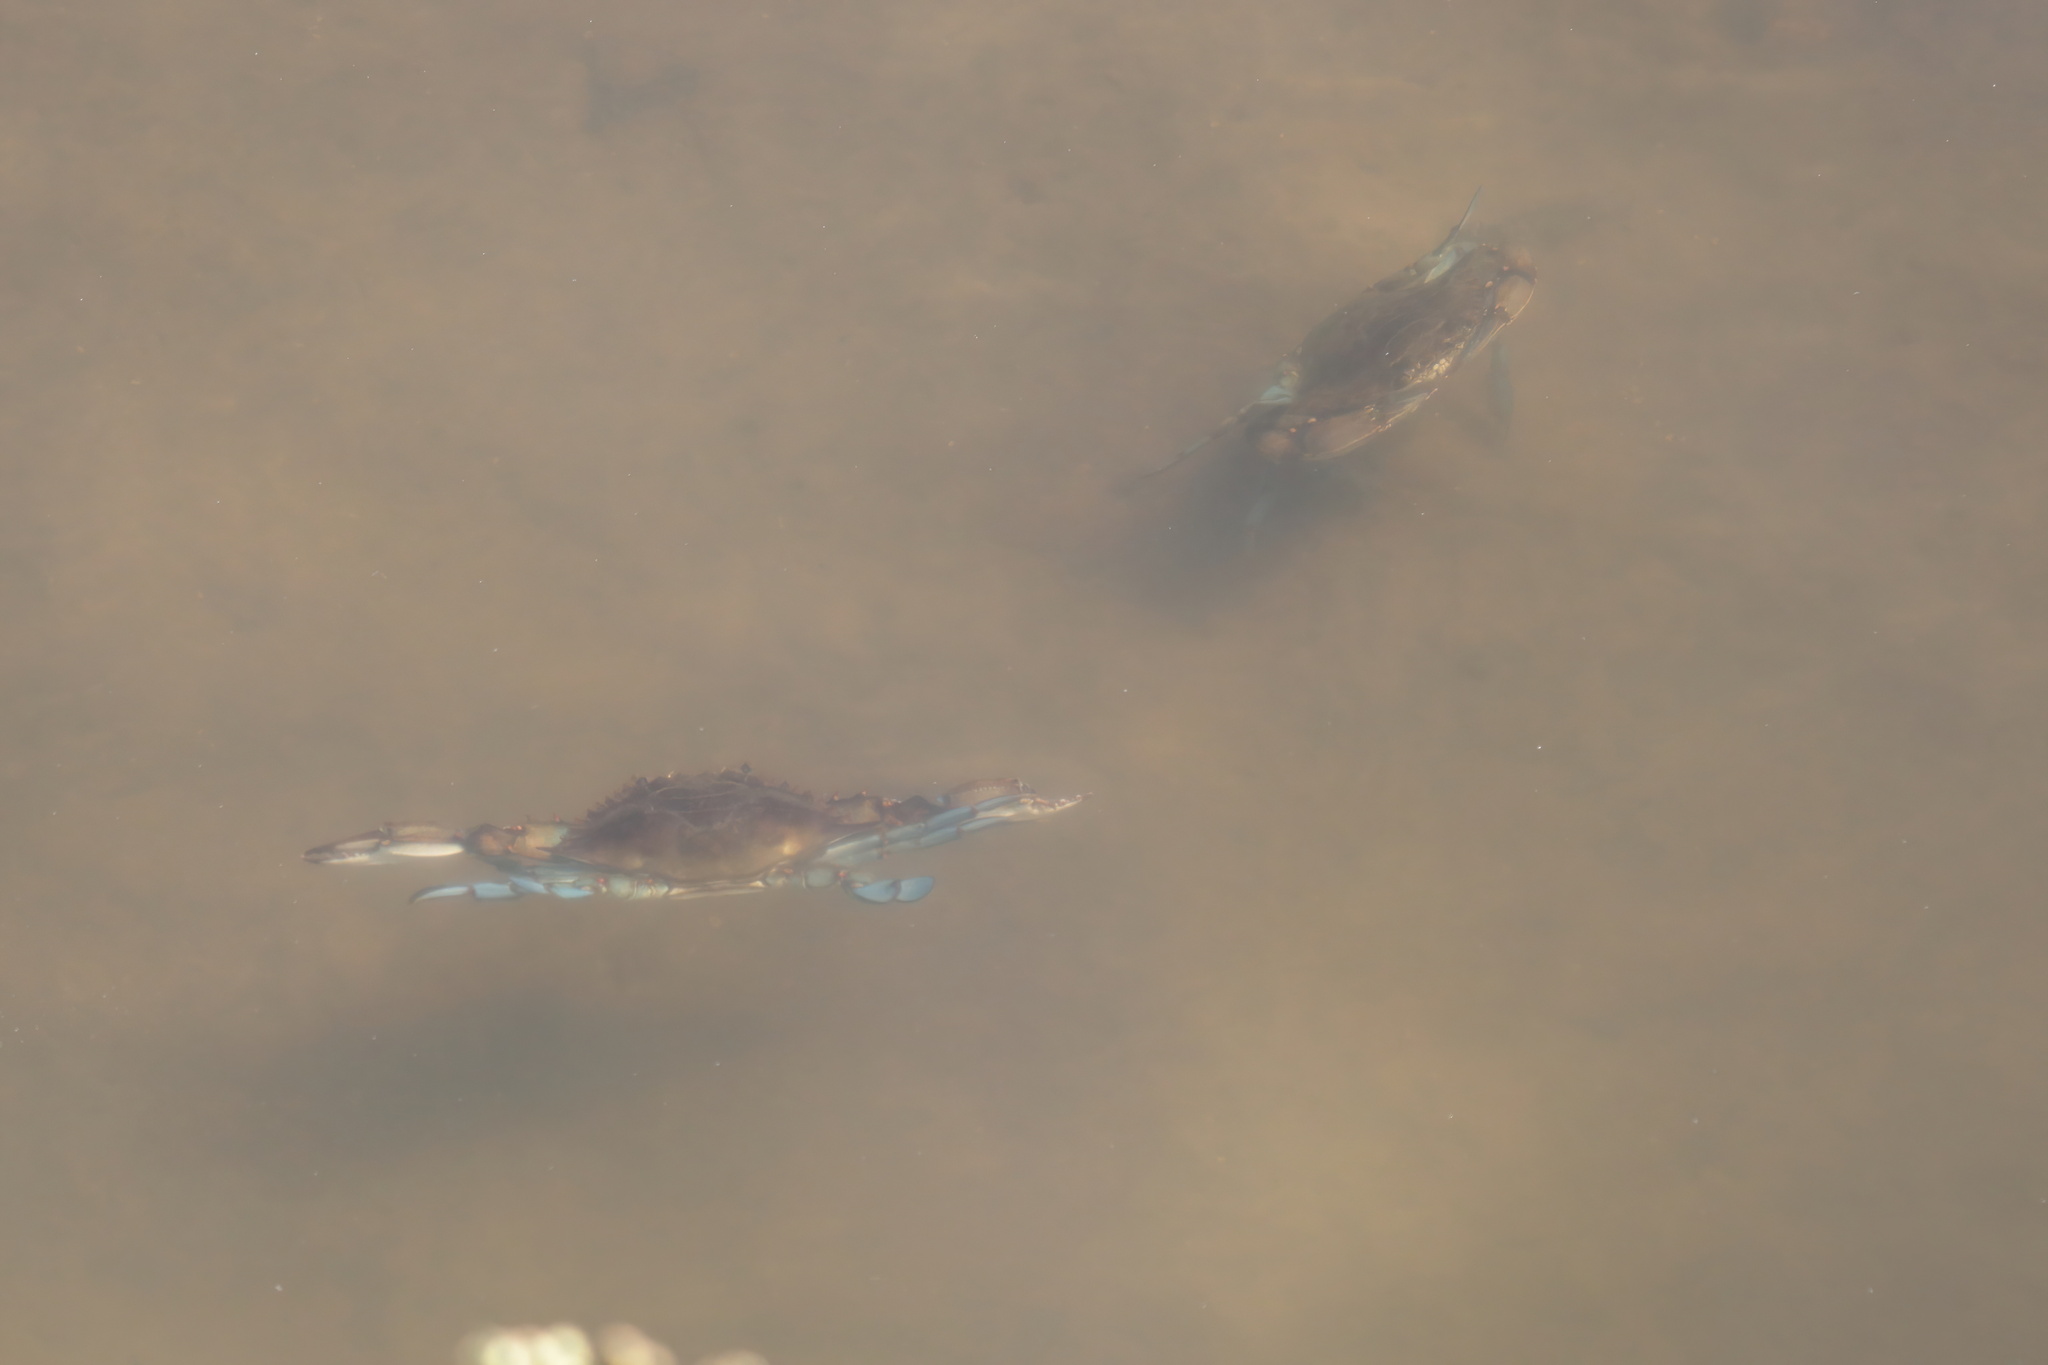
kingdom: Animalia
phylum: Arthropoda
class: Malacostraca
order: Decapoda
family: Portunidae
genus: Callinectes
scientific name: Callinectes sapidus
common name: Blue crab
